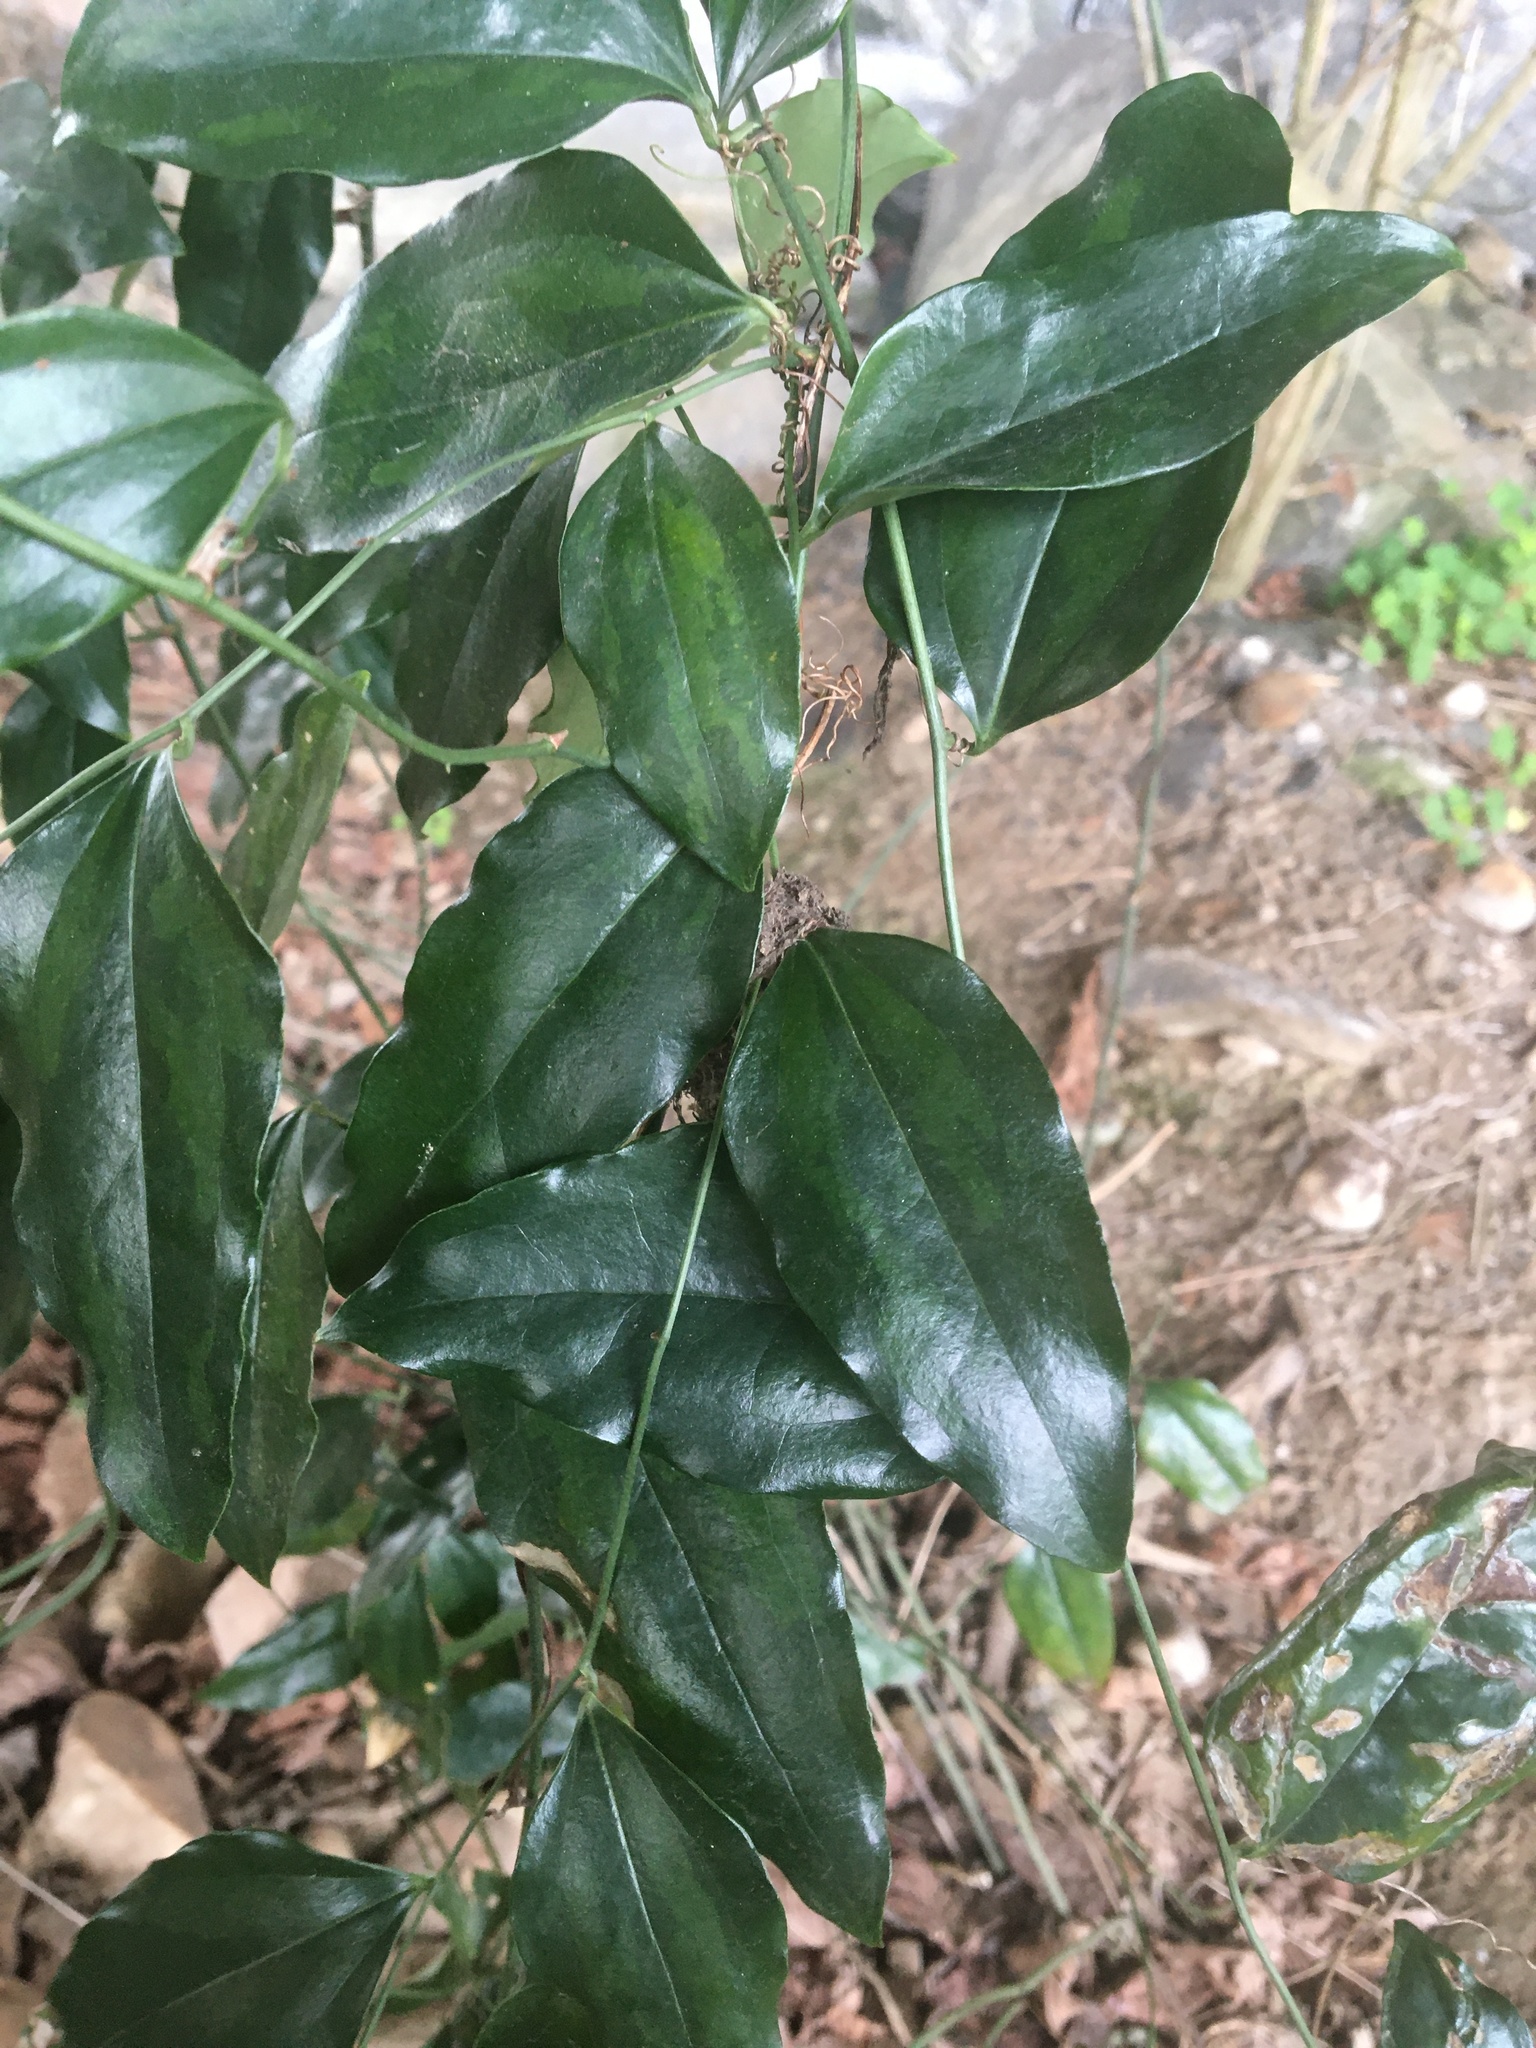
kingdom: Plantae
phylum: Tracheophyta
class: Liliopsida
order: Liliales
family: Smilacaceae
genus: Smilax
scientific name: Smilax maritima
